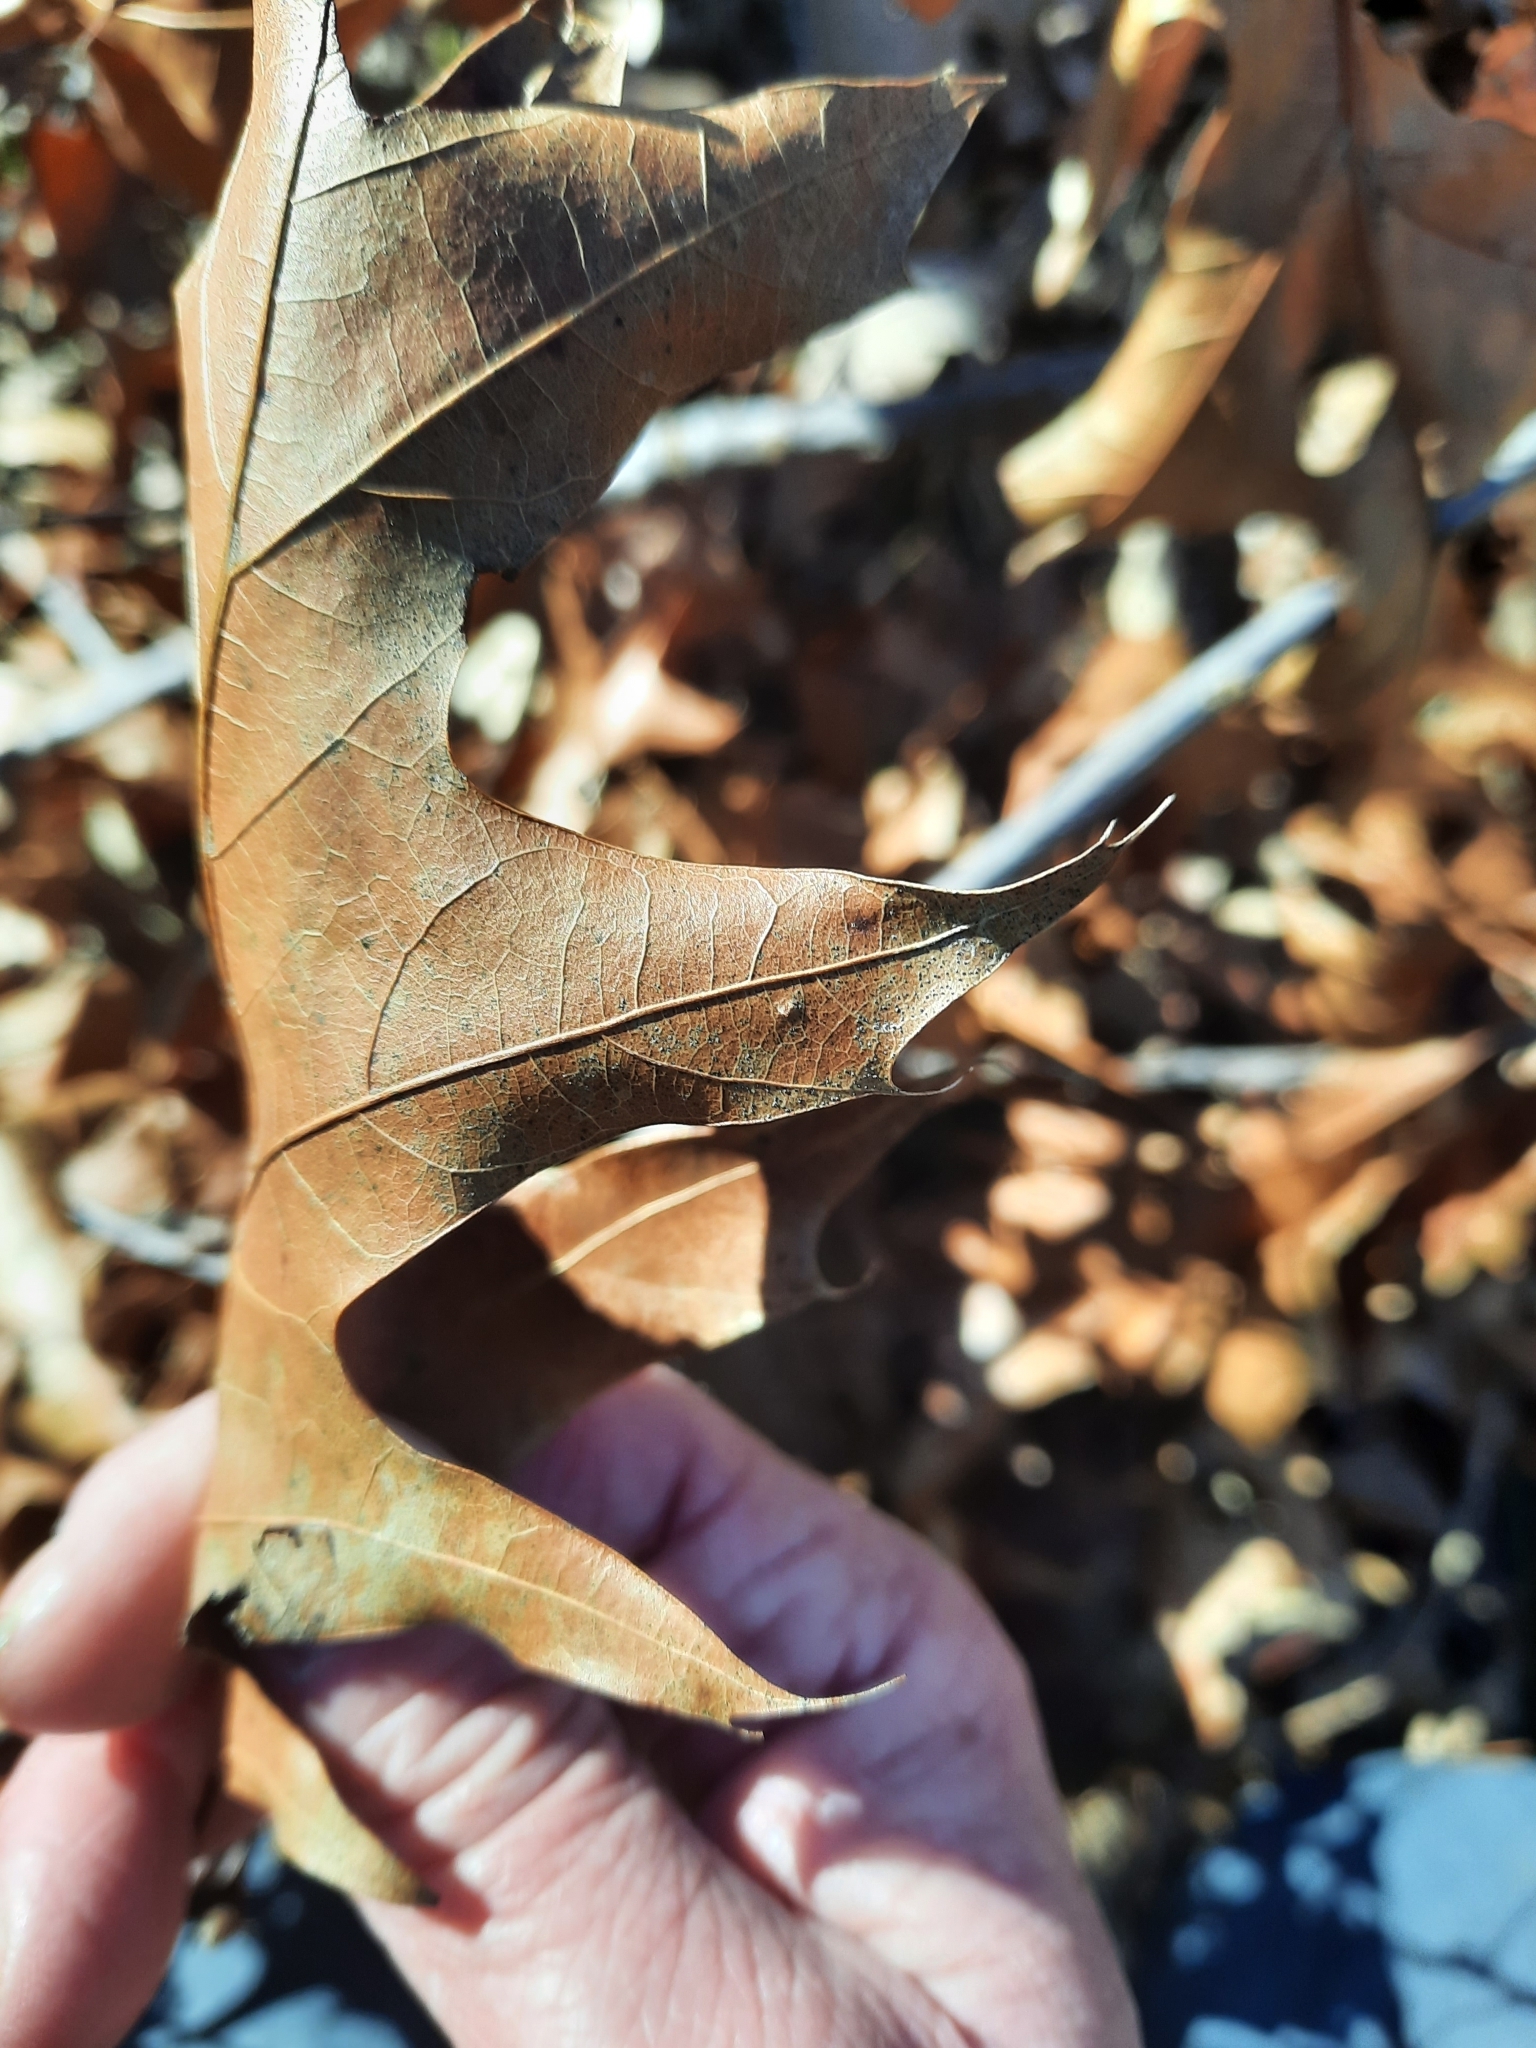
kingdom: Plantae
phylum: Tracheophyta
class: Magnoliopsida
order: Fagales
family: Fagaceae
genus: Quercus
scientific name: Quercus velutina
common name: Black oak
